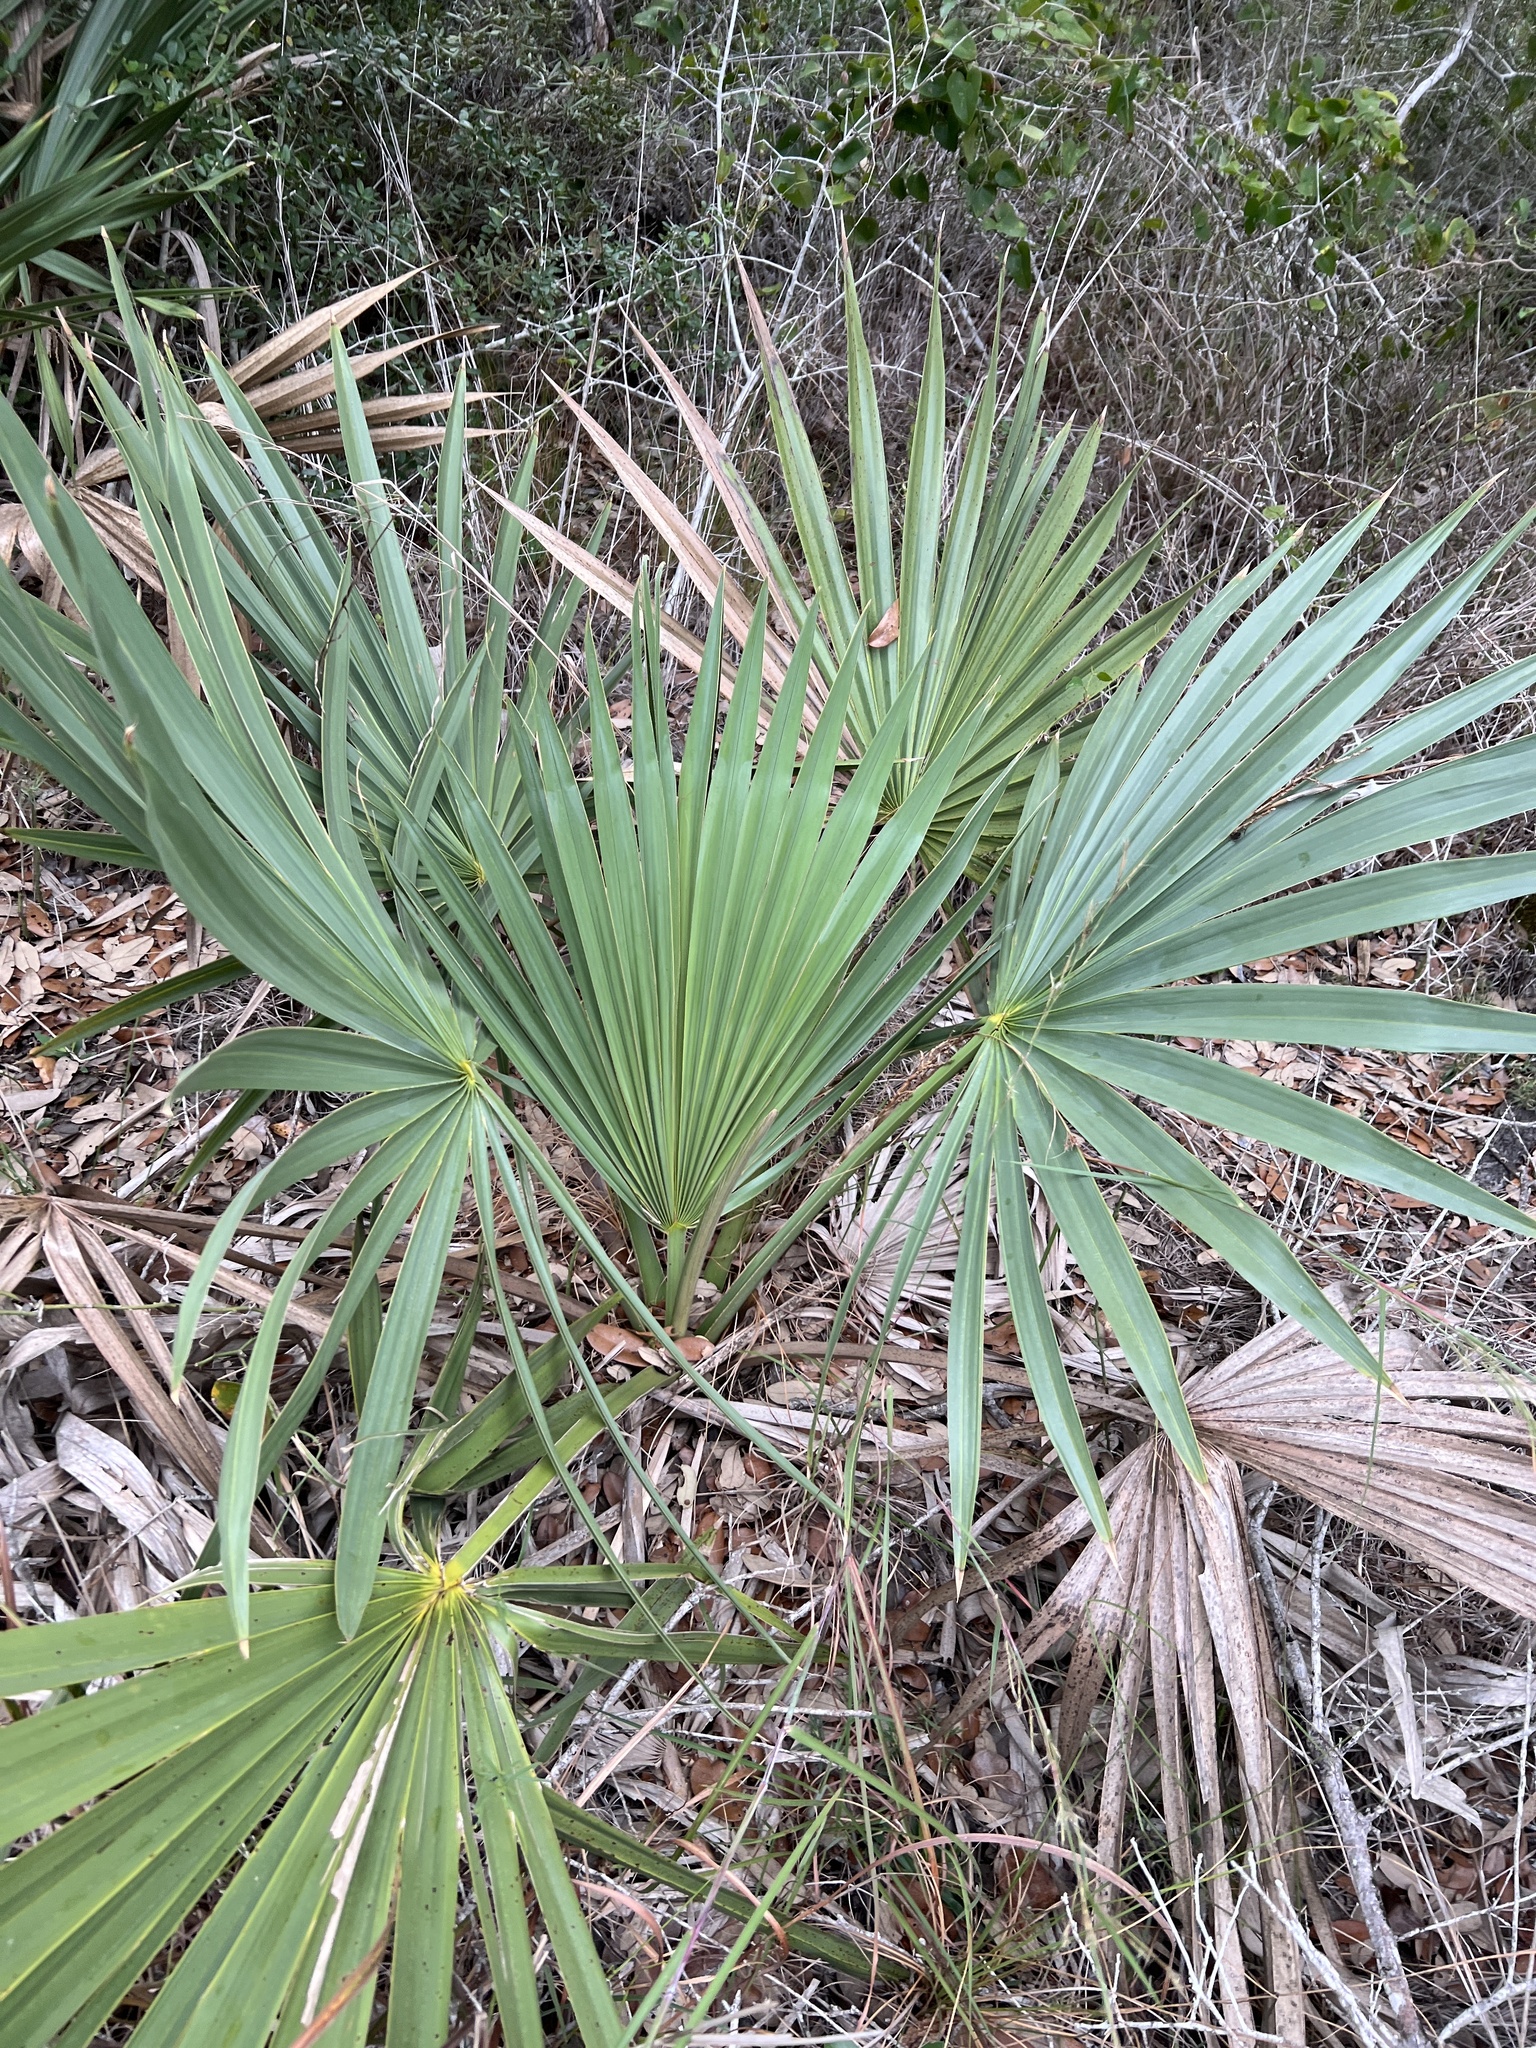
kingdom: Plantae
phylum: Tracheophyta
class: Liliopsida
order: Arecales
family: Arecaceae
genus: Sabal
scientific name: Sabal minor
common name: Dwarf palmetto
